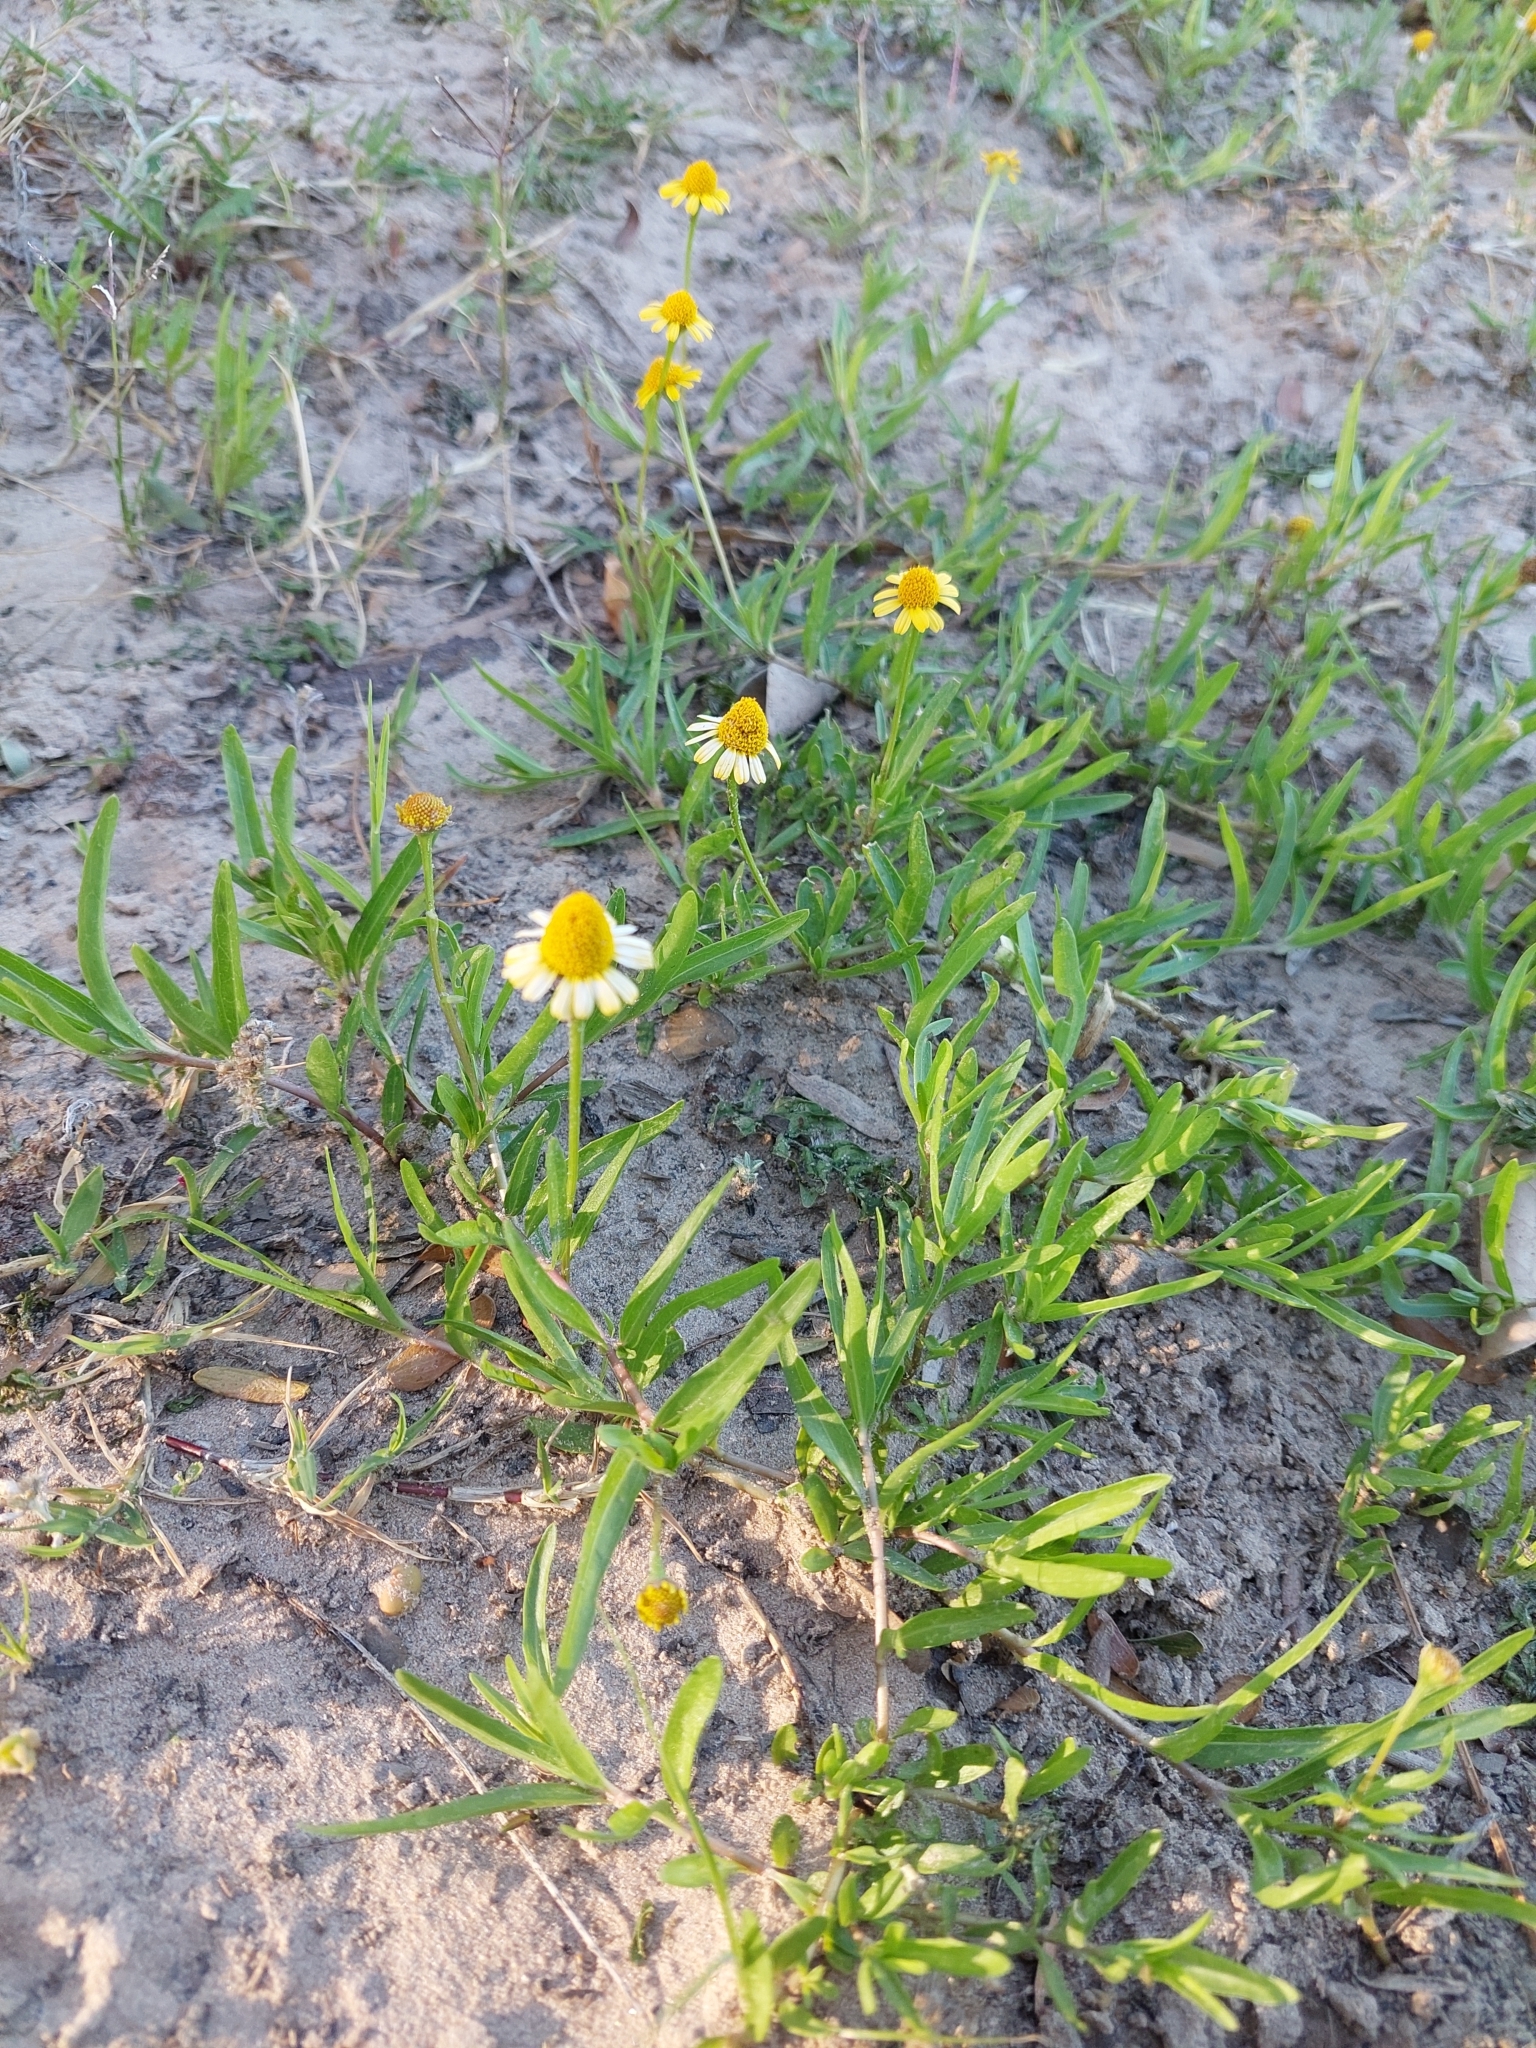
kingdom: Plantae
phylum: Tracheophyta
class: Magnoliopsida
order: Asterales
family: Asteraceae
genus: Acmella
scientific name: Acmella decumbens
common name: Creeping spotflower
